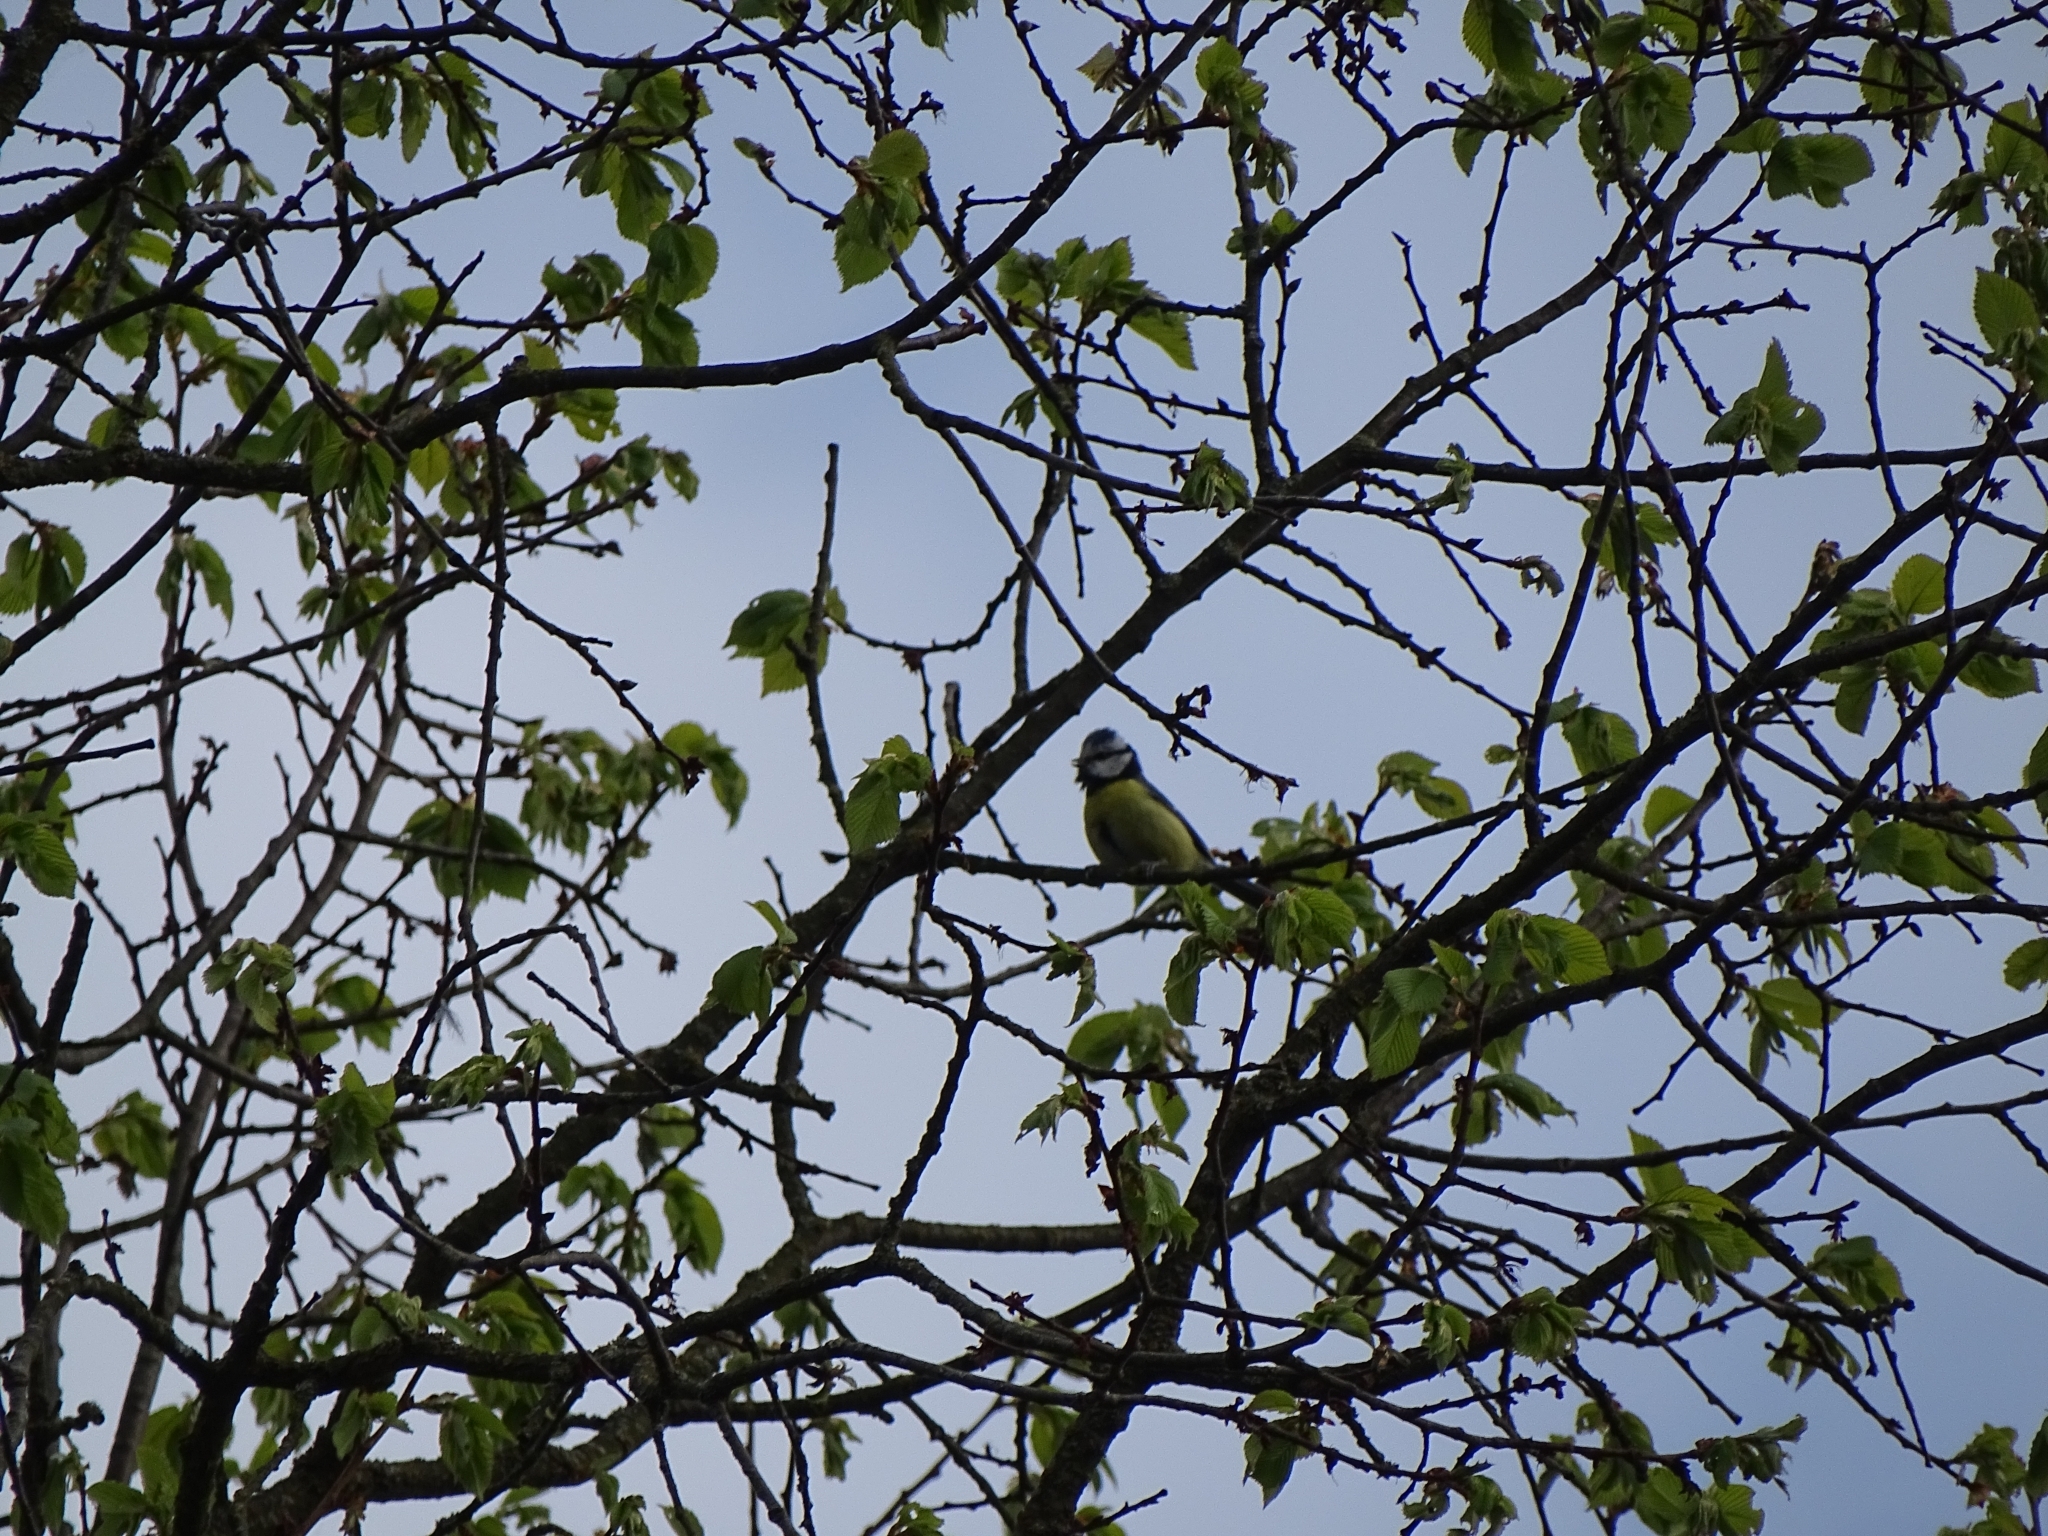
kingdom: Animalia
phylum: Chordata
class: Aves
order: Passeriformes
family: Paridae
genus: Cyanistes
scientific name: Cyanistes caeruleus
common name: Eurasian blue tit
